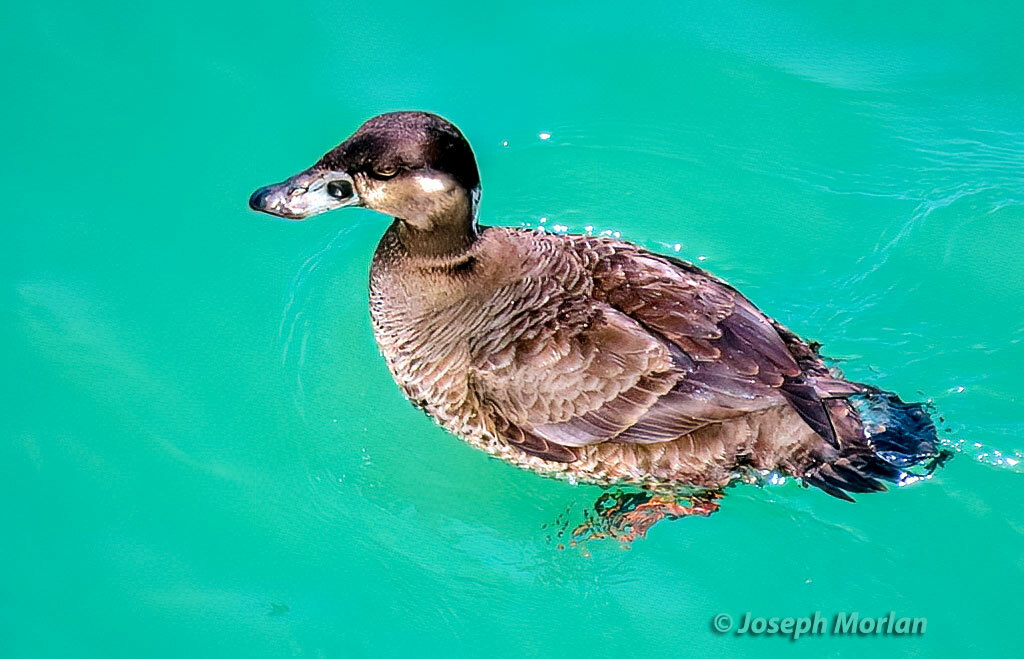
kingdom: Animalia
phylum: Chordata
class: Aves
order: Anseriformes
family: Anatidae
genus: Melanitta
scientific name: Melanitta perspicillata
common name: Surf scoter
